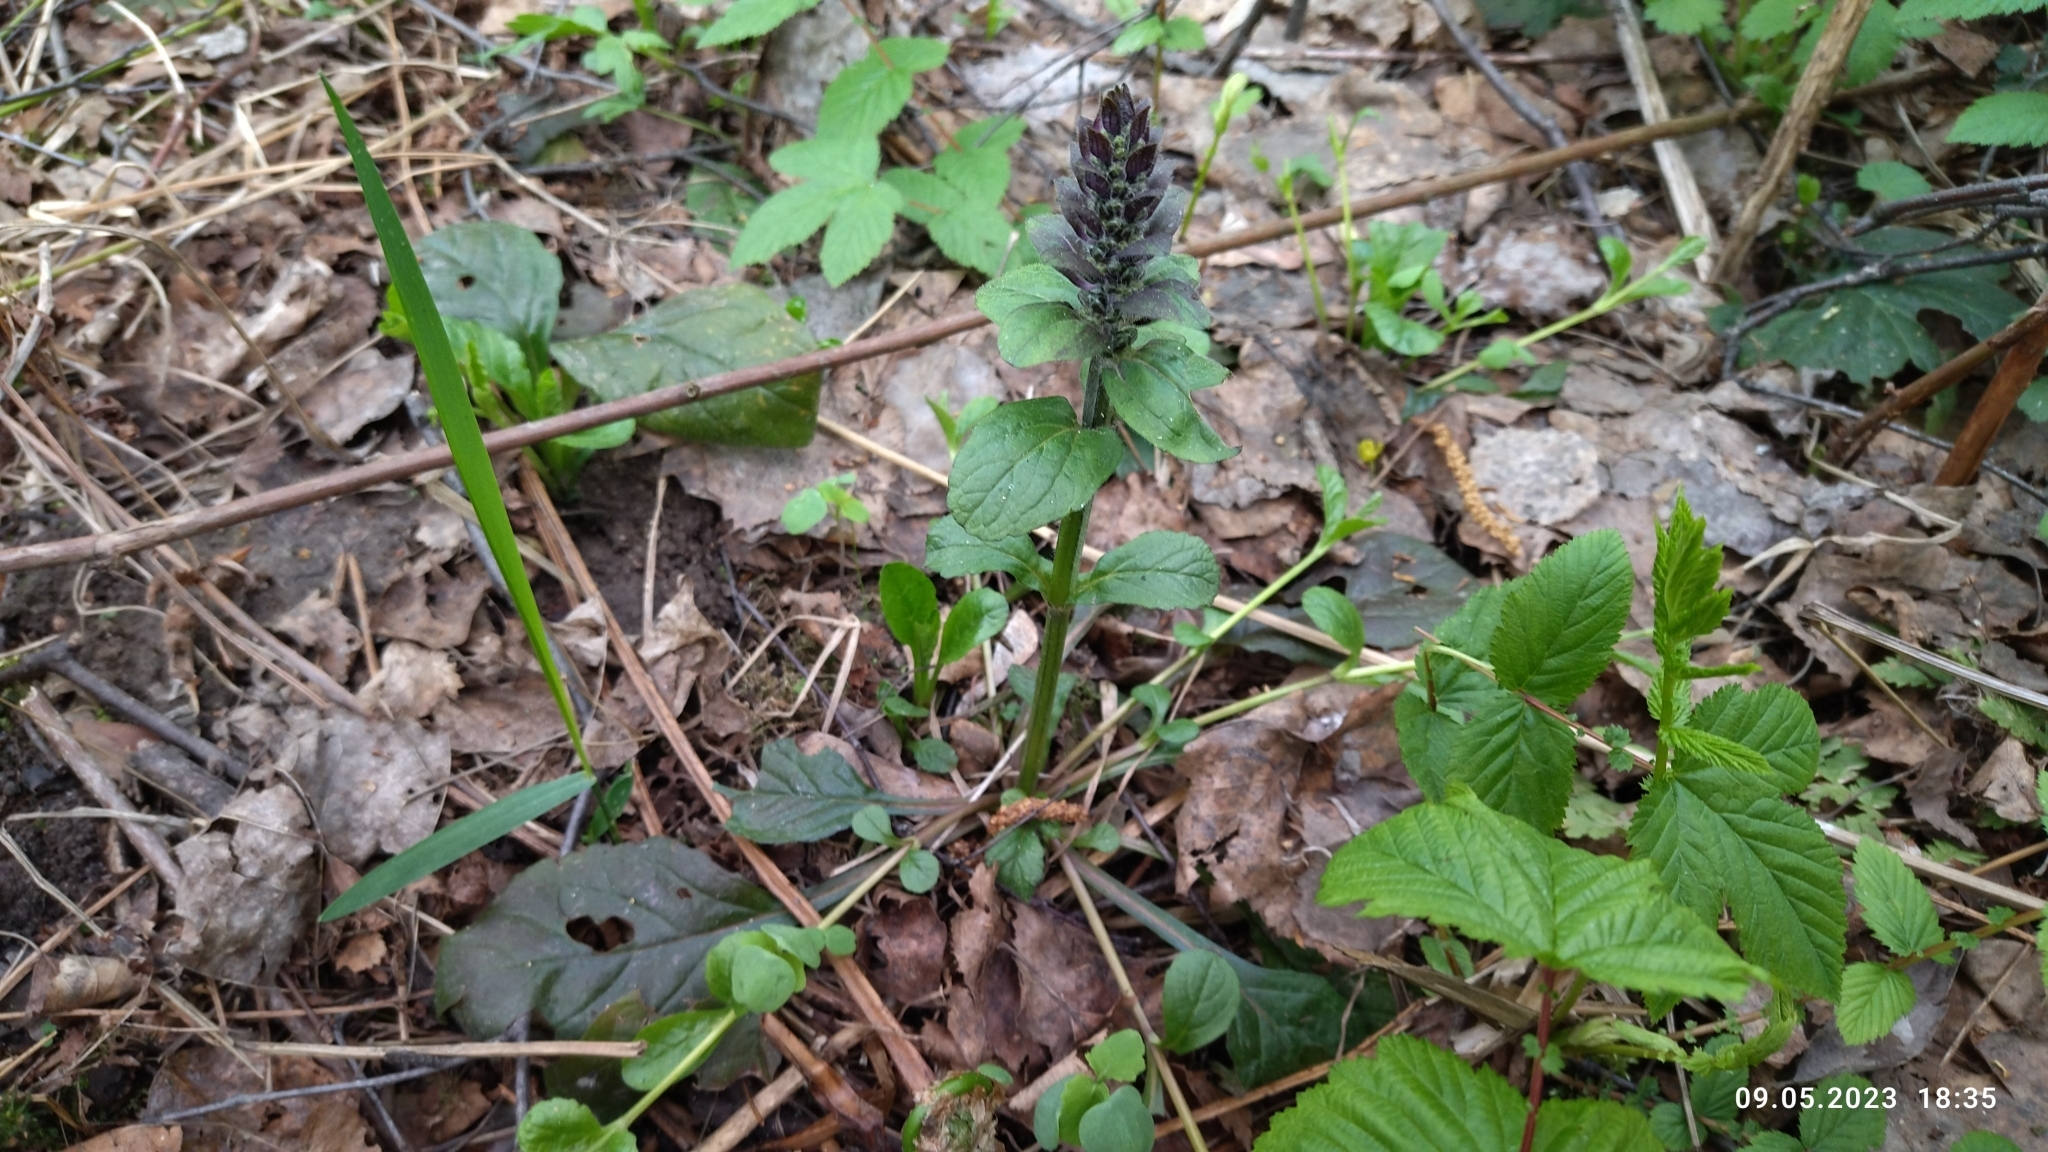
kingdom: Plantae
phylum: Tracheophyta
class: Magnoliopsida
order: Lamiales
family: Lamiaceae
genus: Ajuga
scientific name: Ajuga reptans
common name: Bugle
